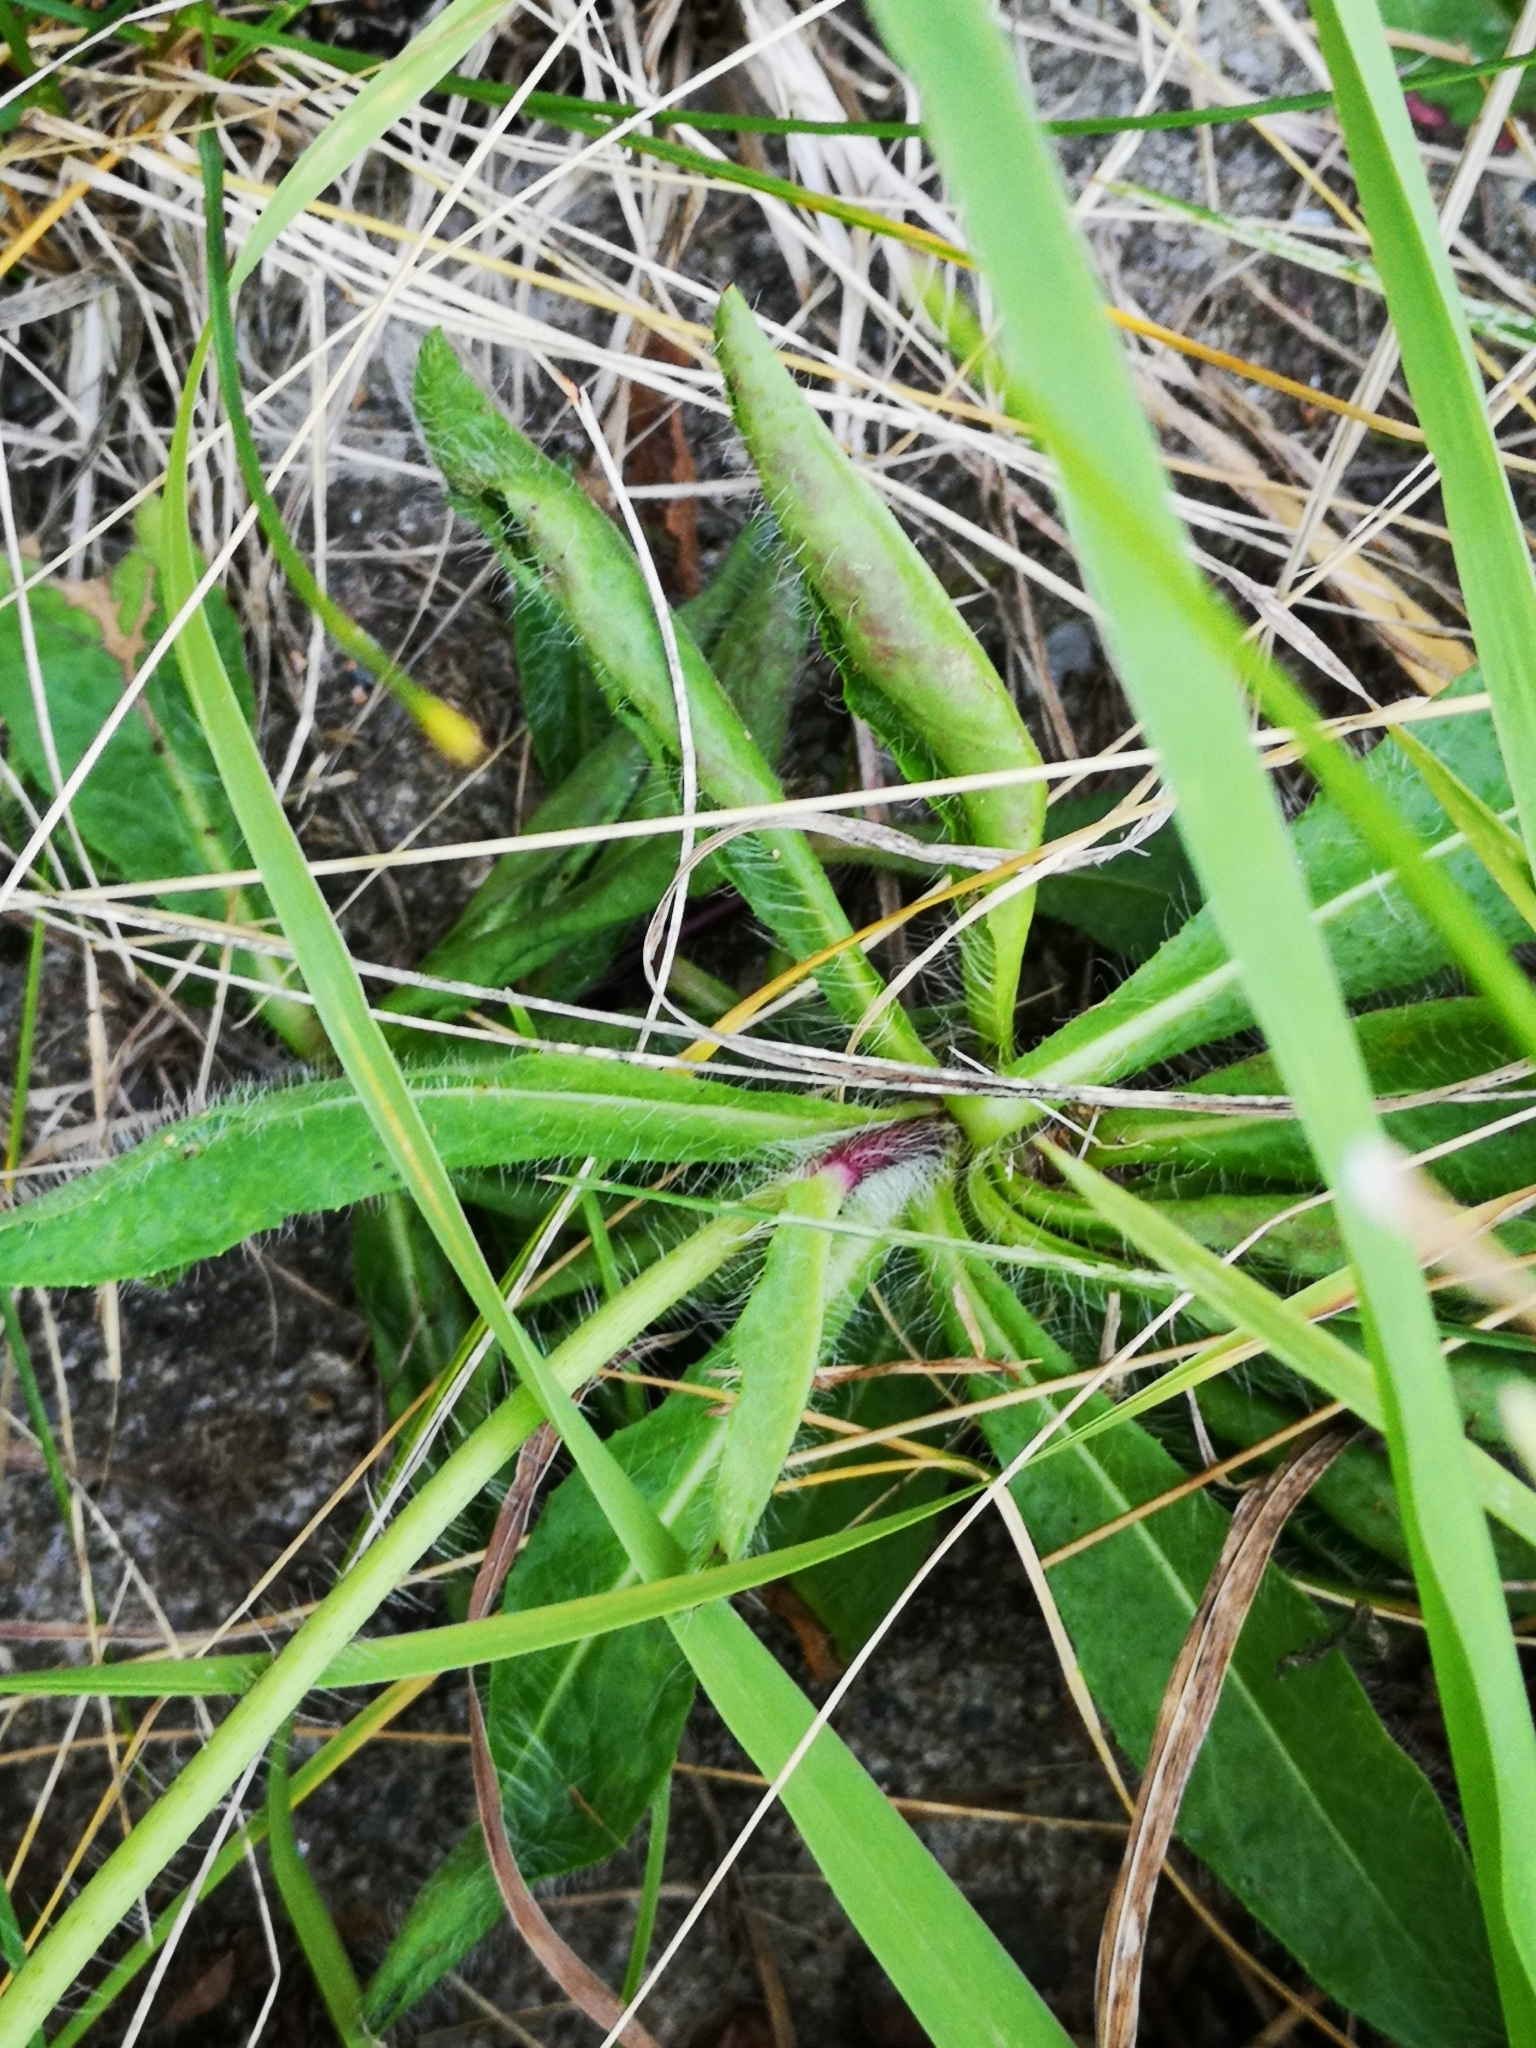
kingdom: Plantae
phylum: Tracheophyta
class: Magnoliopsida
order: Asterales
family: Asteraceae
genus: Pilosella
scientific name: Pilosella aurantiaca
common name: Fox-and-cubs
